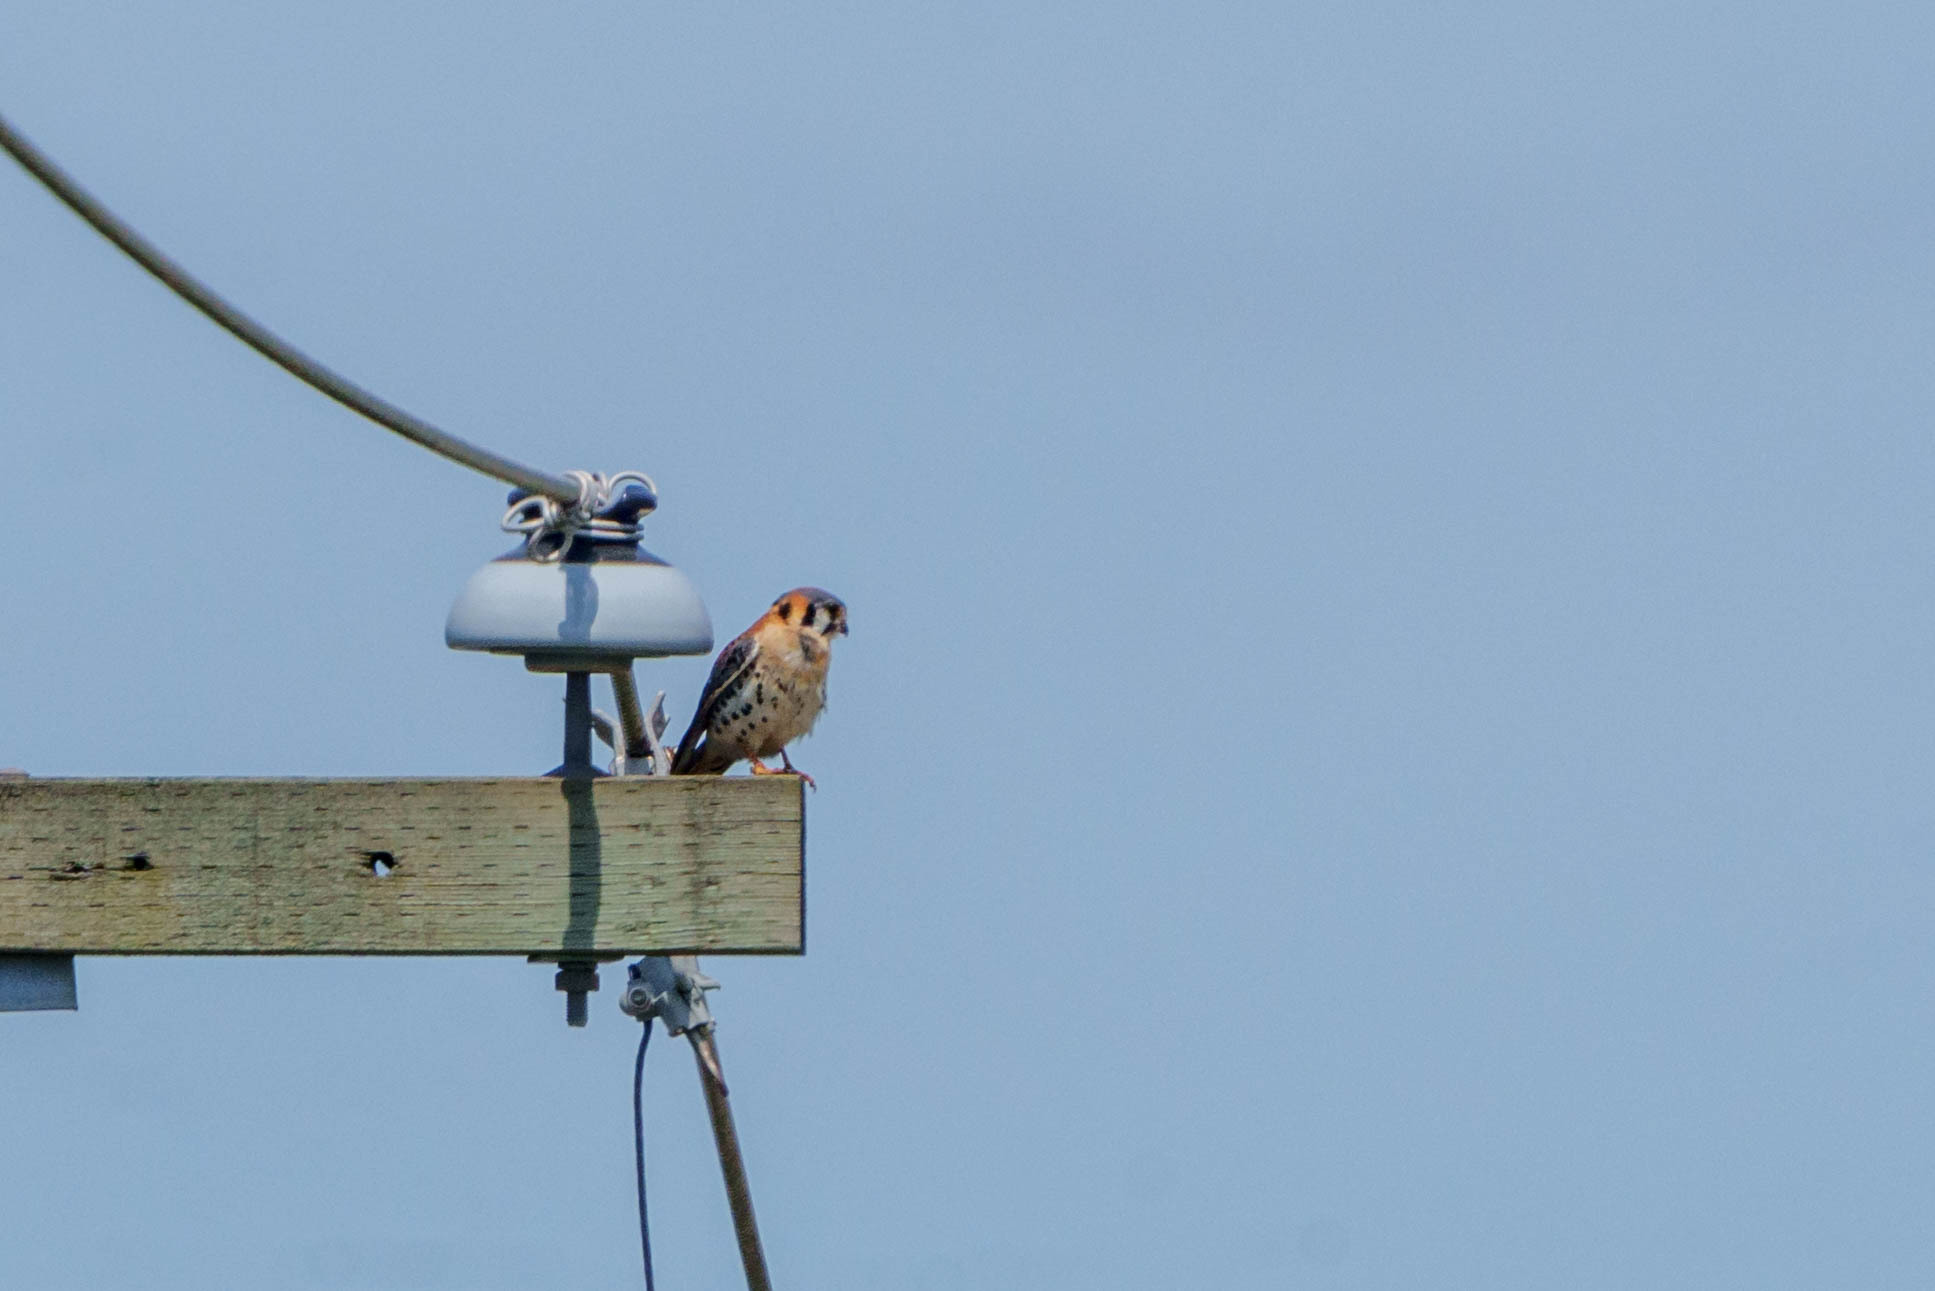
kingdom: Animalia
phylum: Chordata
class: Aves
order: Falconiformes
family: Falconidae
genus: Falco
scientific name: Falco sparverius
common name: American kestrel
